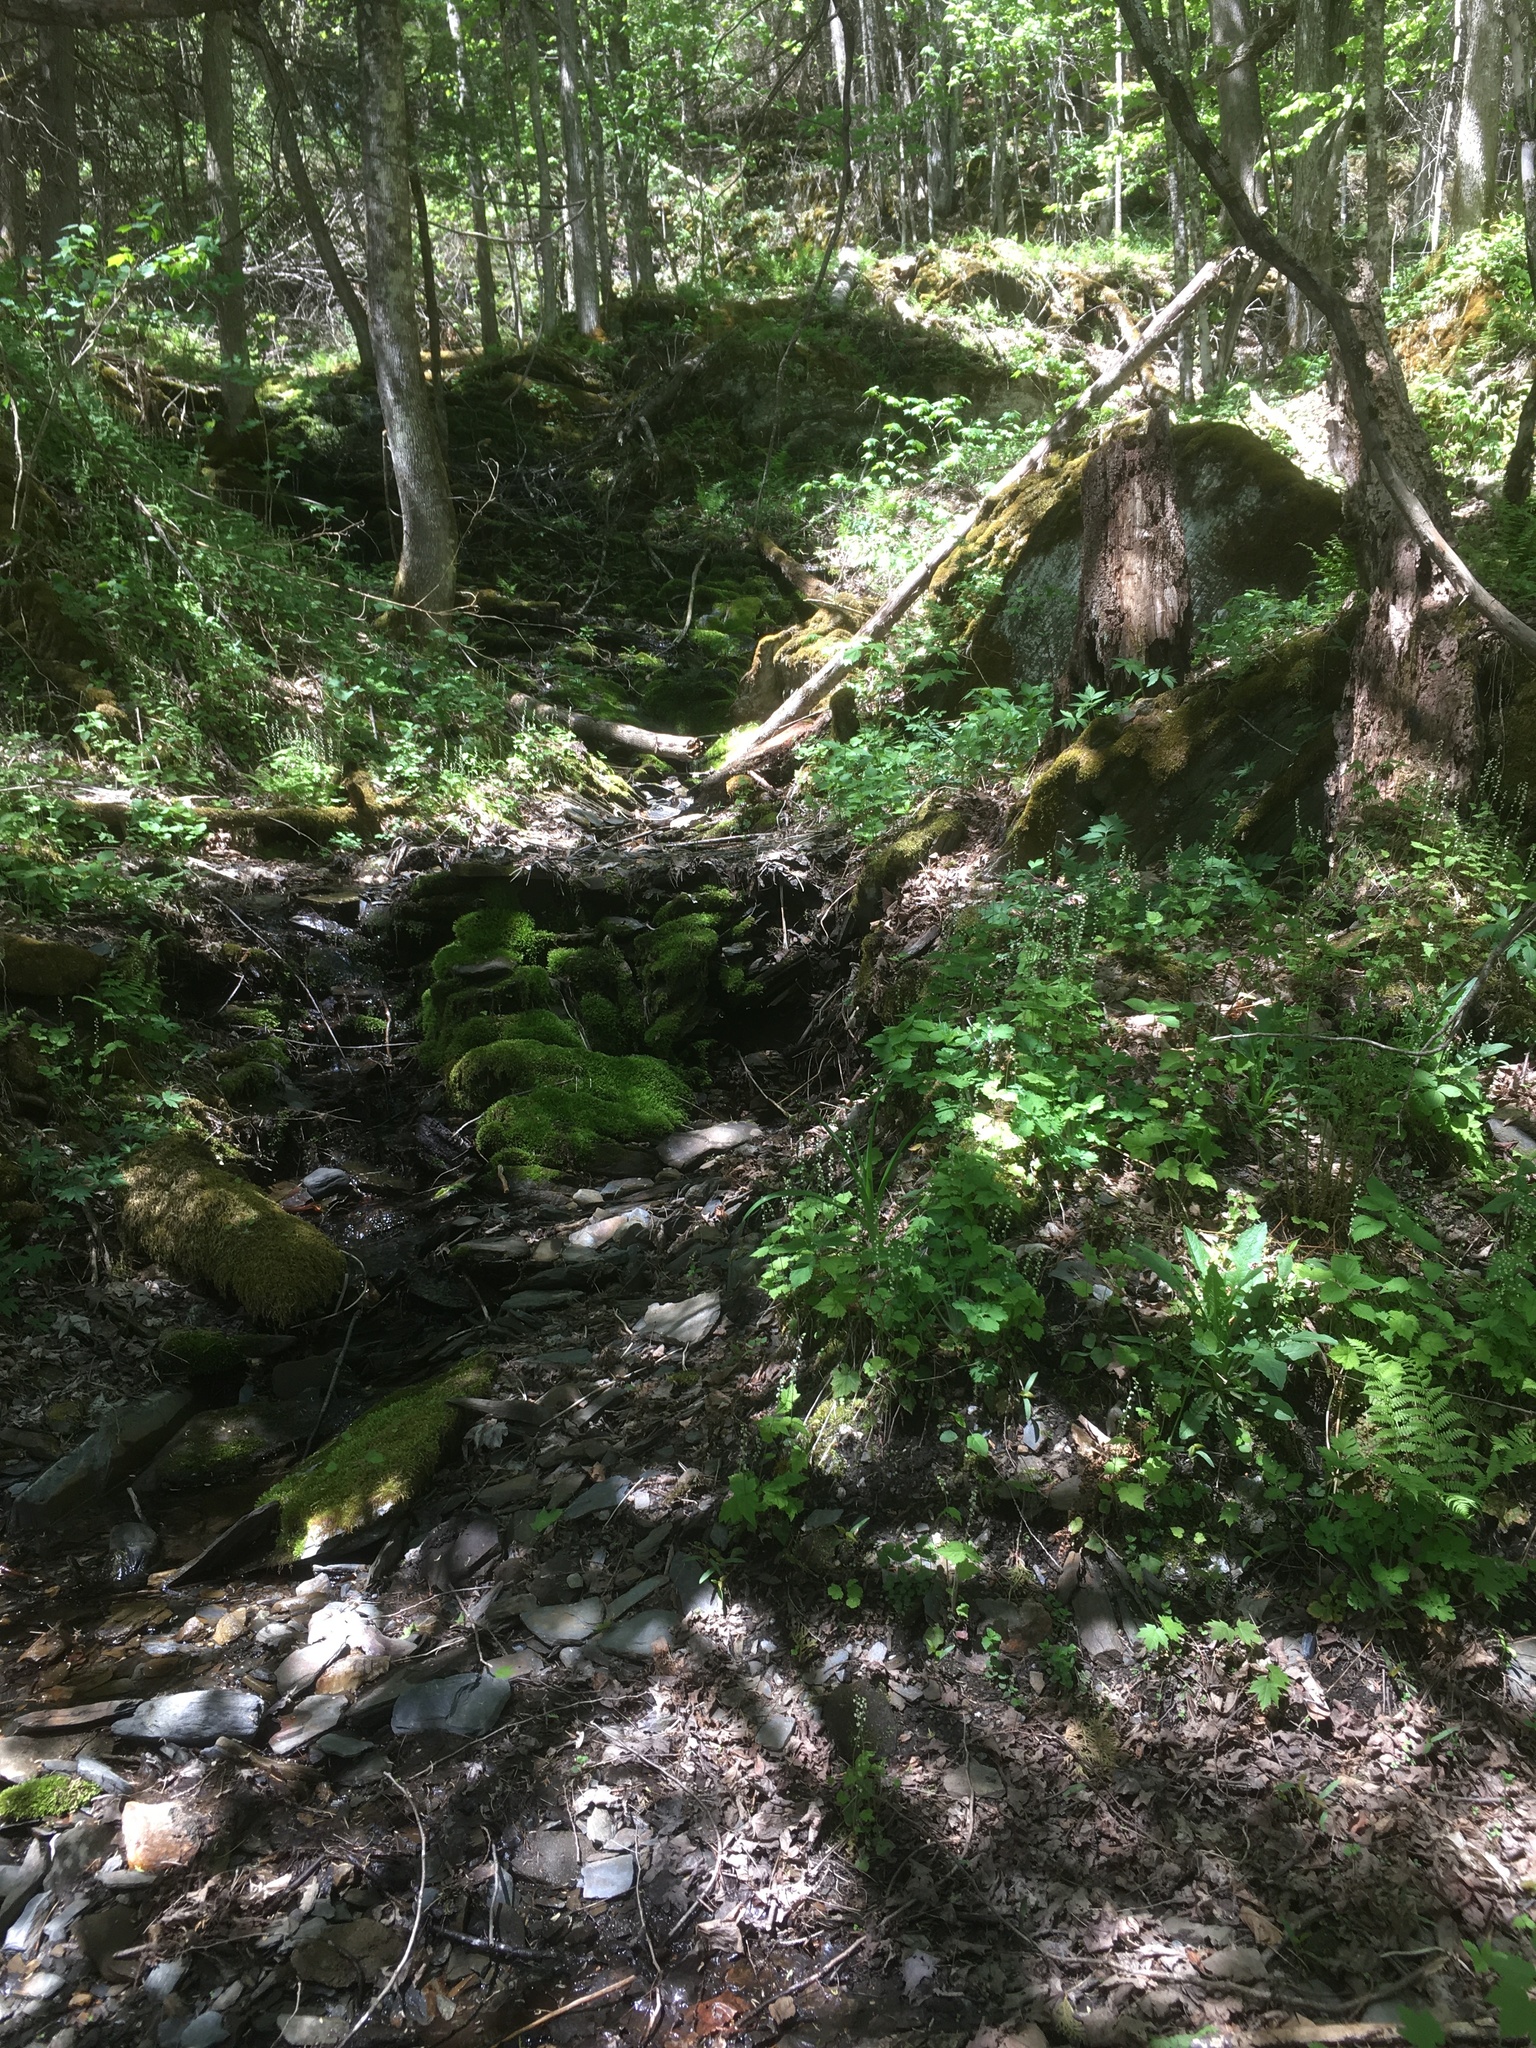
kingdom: Plantae
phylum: Tracheophyta
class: Magnoliopsida
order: Saxifragales
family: Saxifragaceae
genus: Mitella
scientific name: Mitella diphylla
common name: Coolwort
